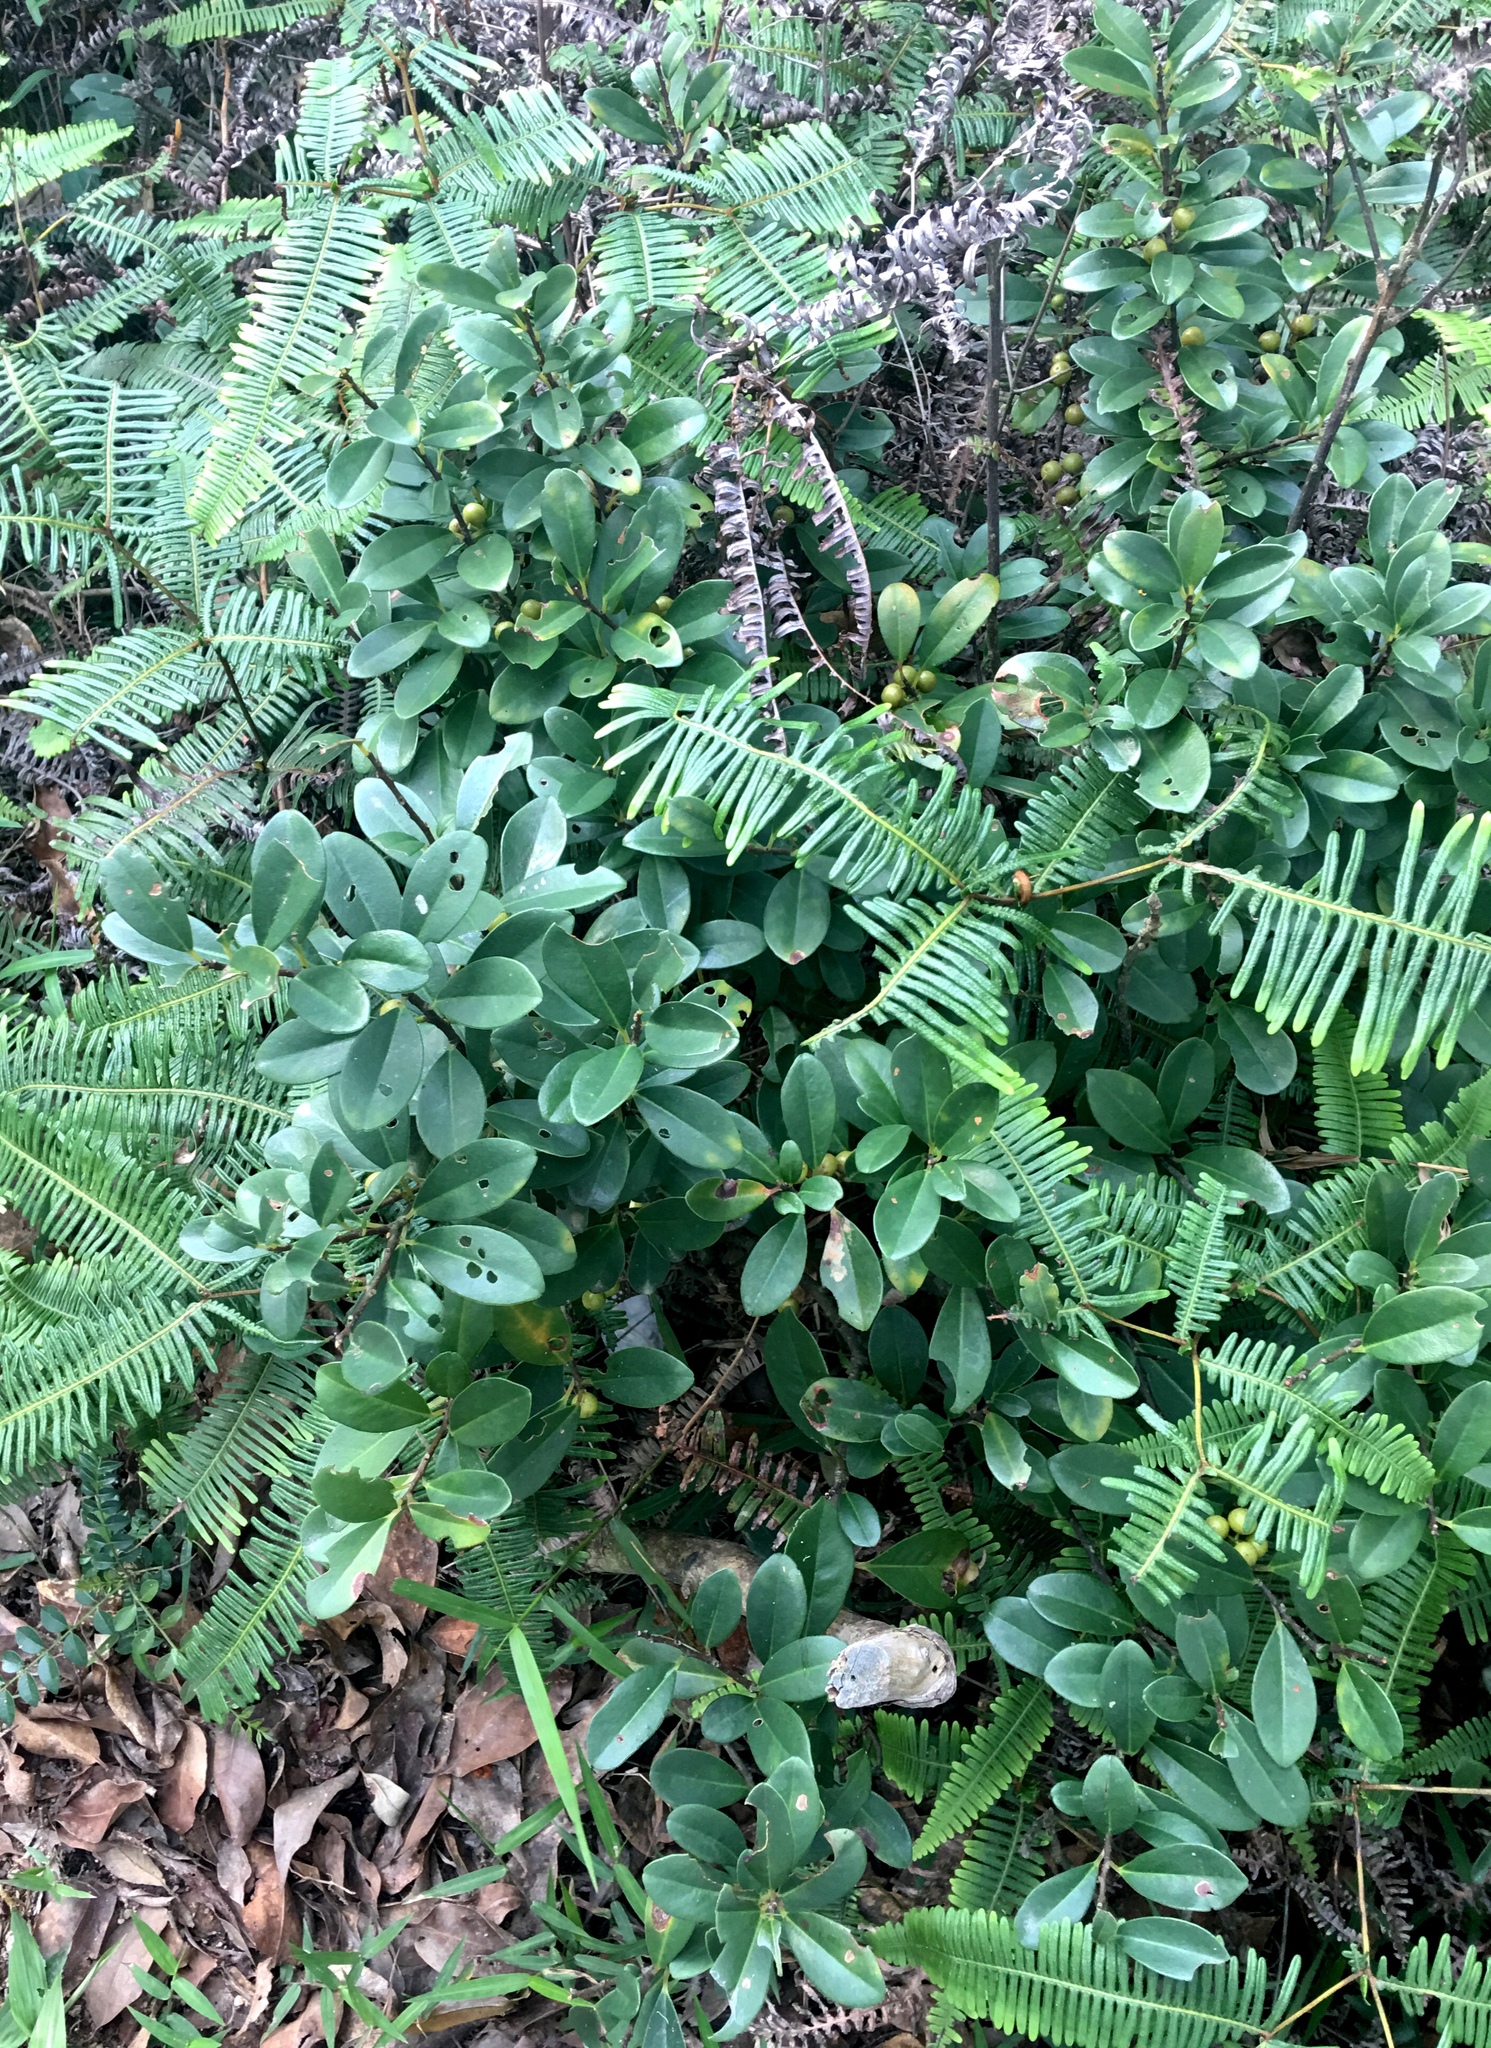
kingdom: Plantae
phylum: Tracheophyta
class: Magnoliopsida
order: Ericales
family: Primulaceae
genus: Embelia
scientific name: Embelia laeta
